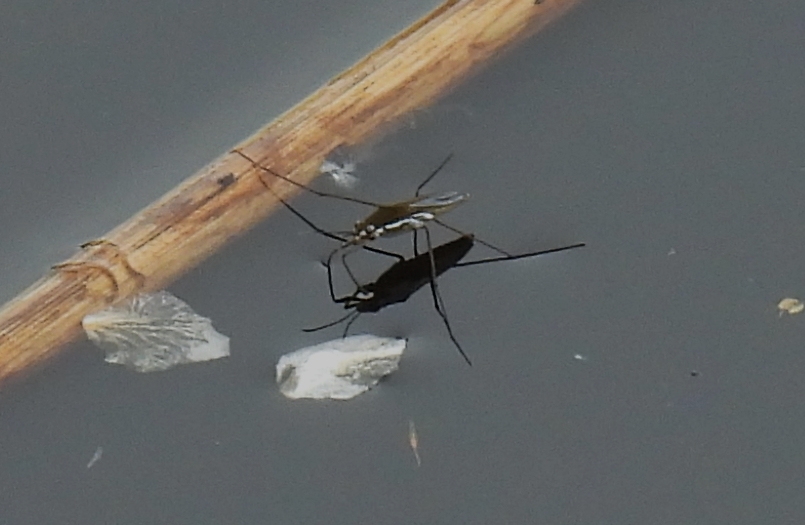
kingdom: Animalia
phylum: Arthropoda
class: Insecta
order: Hemiptera
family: Gerridae
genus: Gerris
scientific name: Gerris
